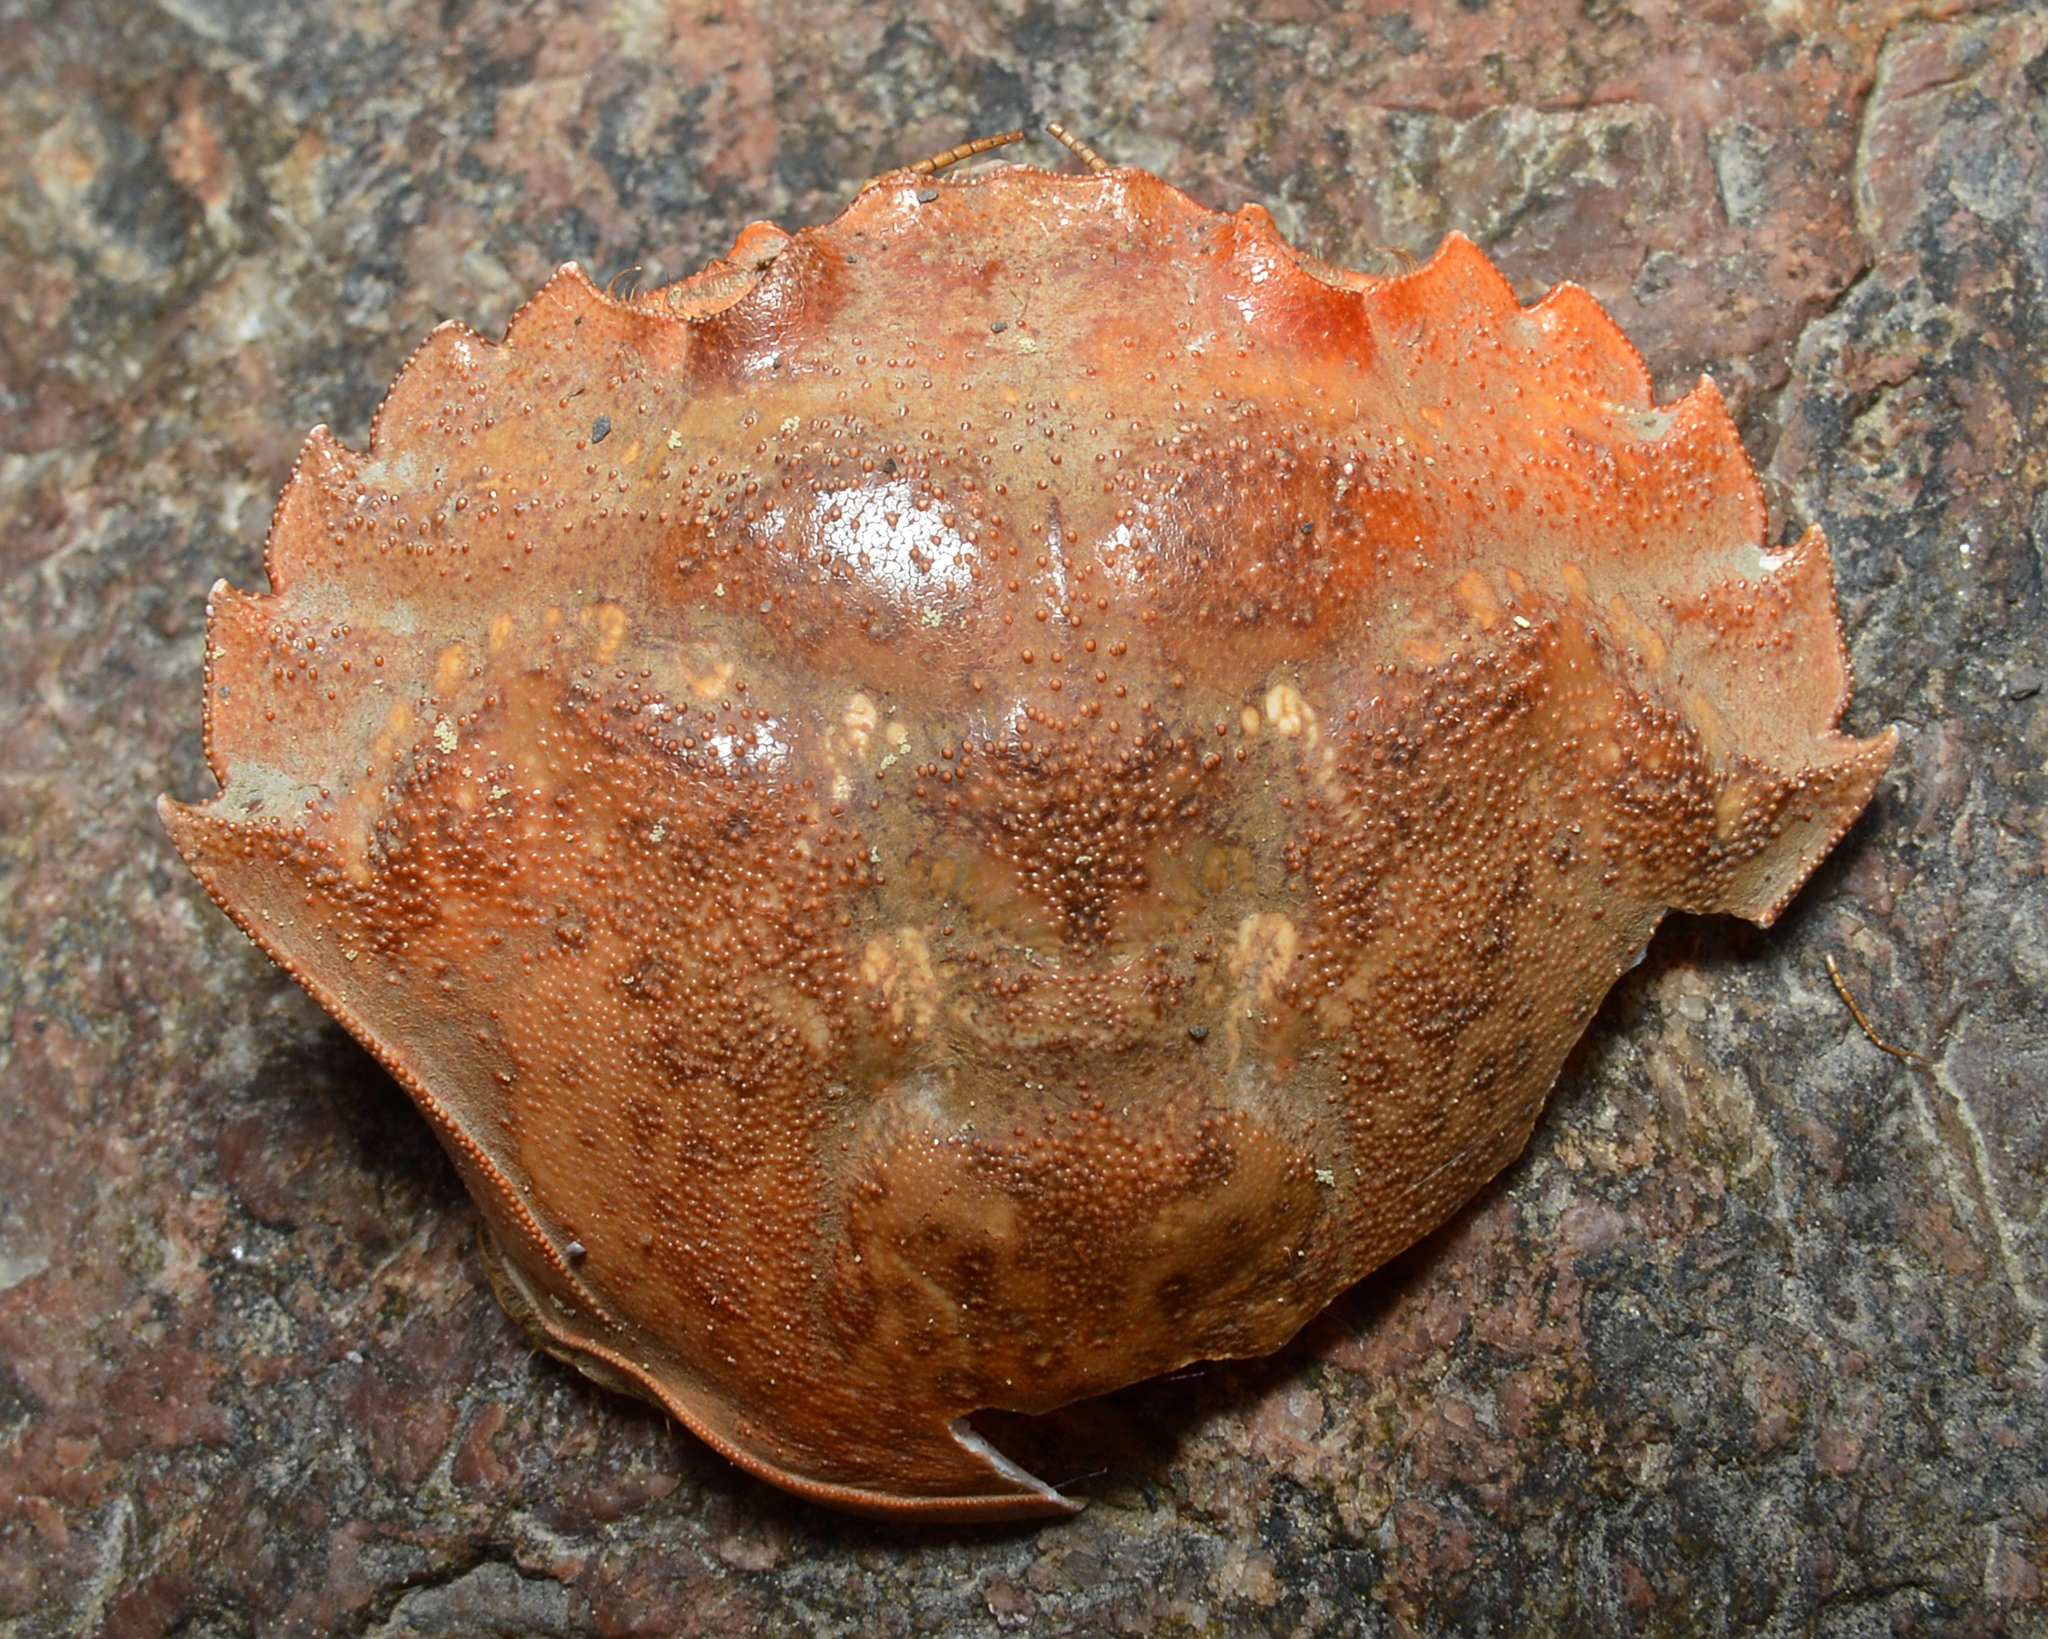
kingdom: Animalia
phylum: Arthropoda
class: Malacostraca
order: Decapoda
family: Carcinidae
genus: Carcinus
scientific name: Carcinus maenas
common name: European green crab
